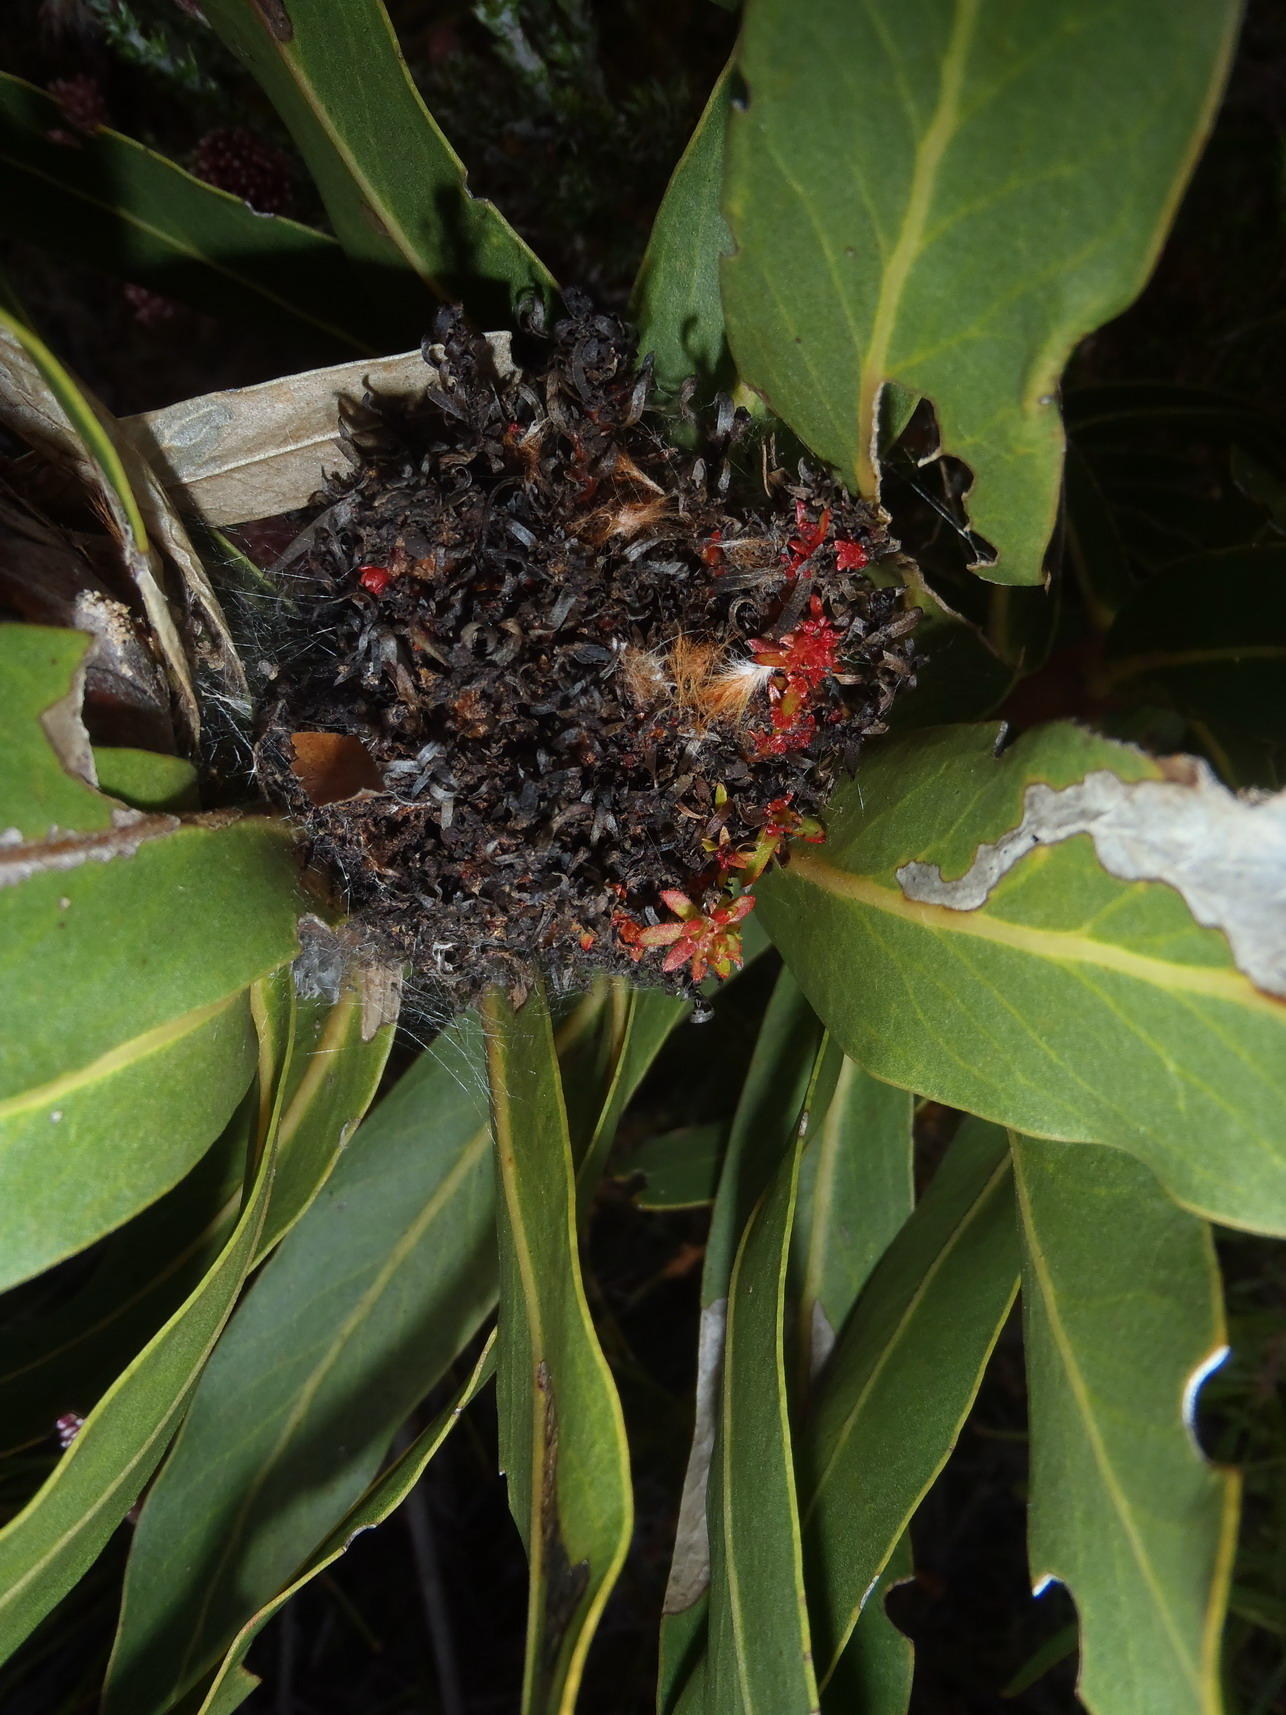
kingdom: Bacteria
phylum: Firmicutes
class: Bacilli
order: Acholeplasmatales
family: Acholeplasmataceae
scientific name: Acholeplasmataceae
